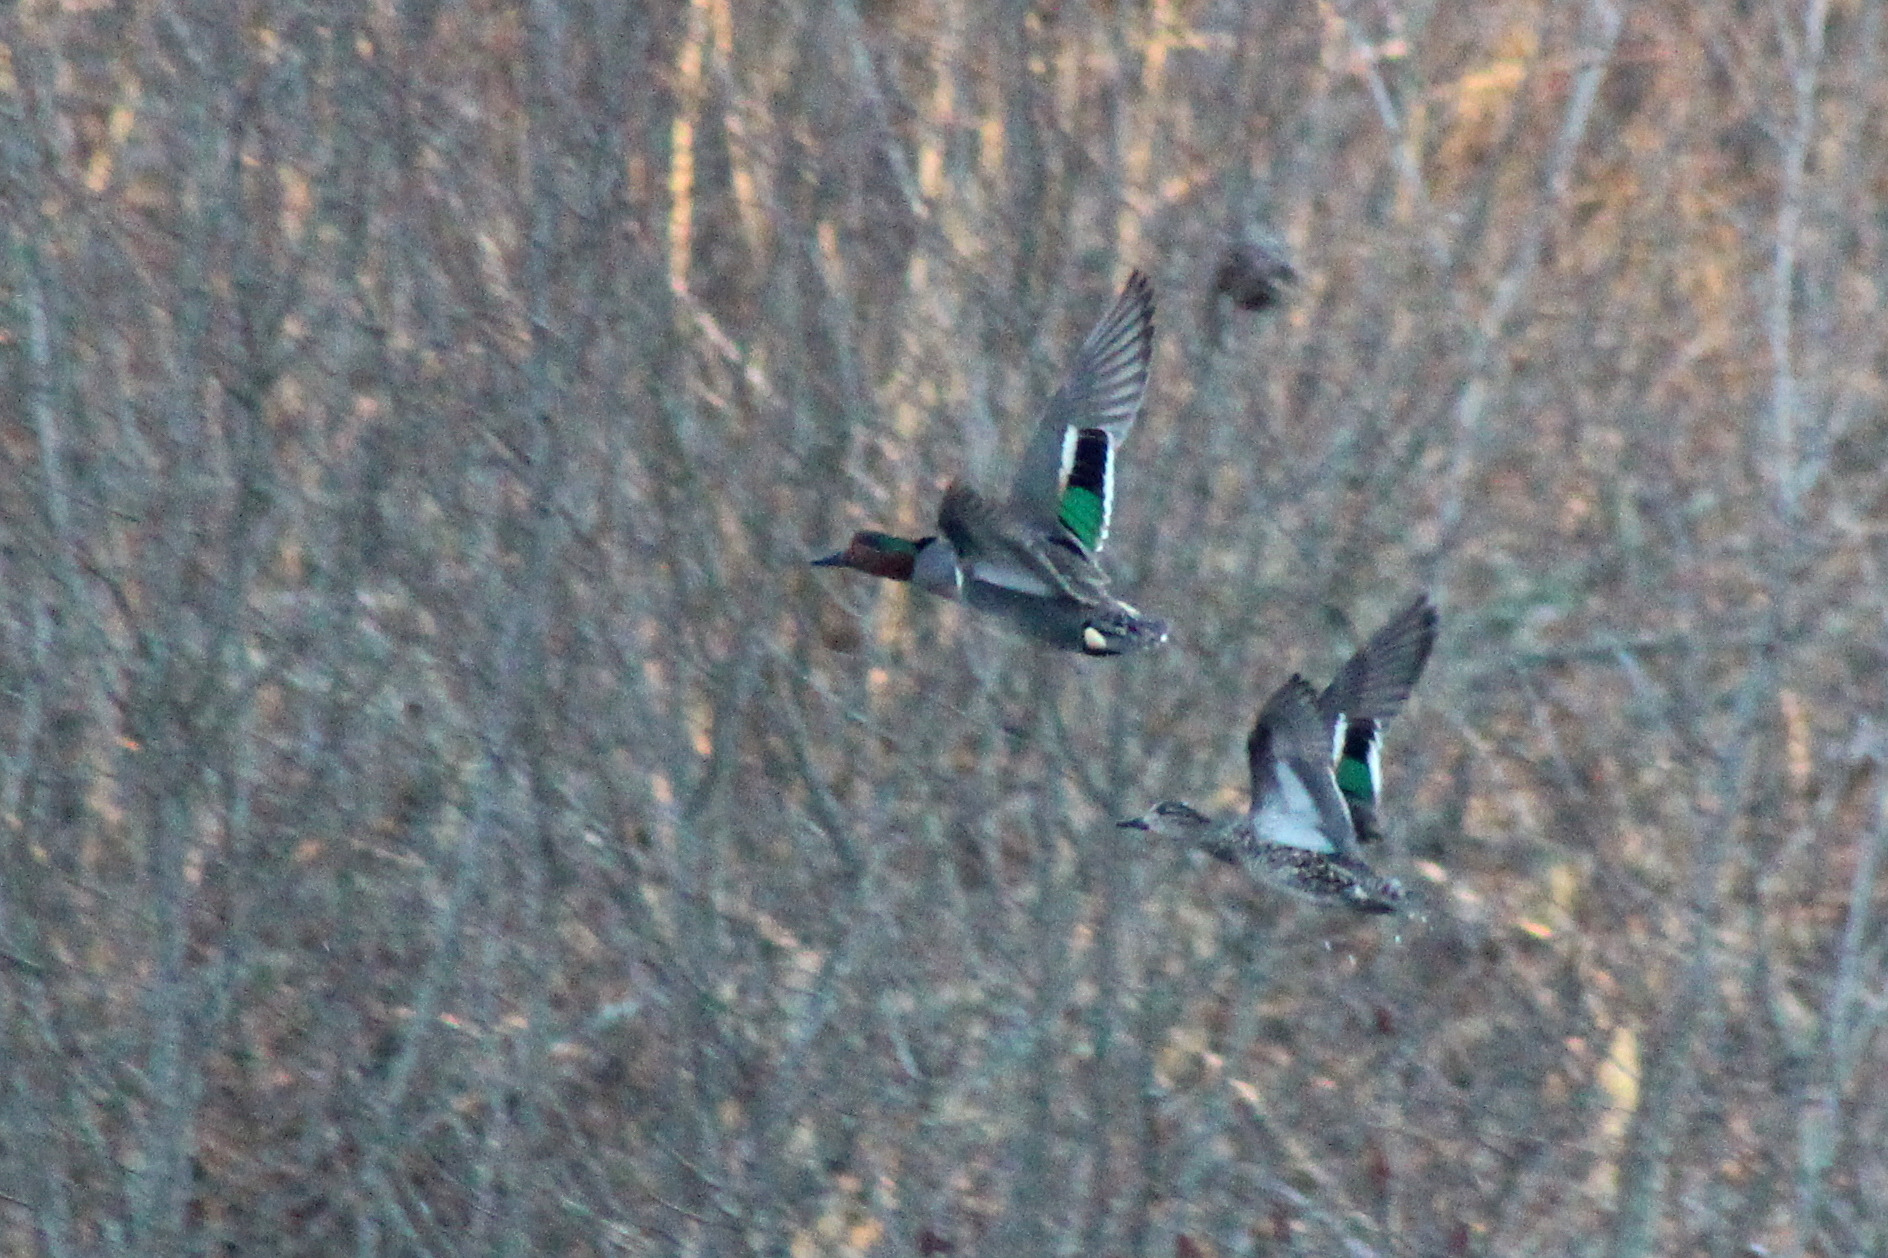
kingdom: Animalia
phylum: Chordata
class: Aves
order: Anseriformes
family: Anatidae
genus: Anas
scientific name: Anas carolinensis
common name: Green-winged teal
